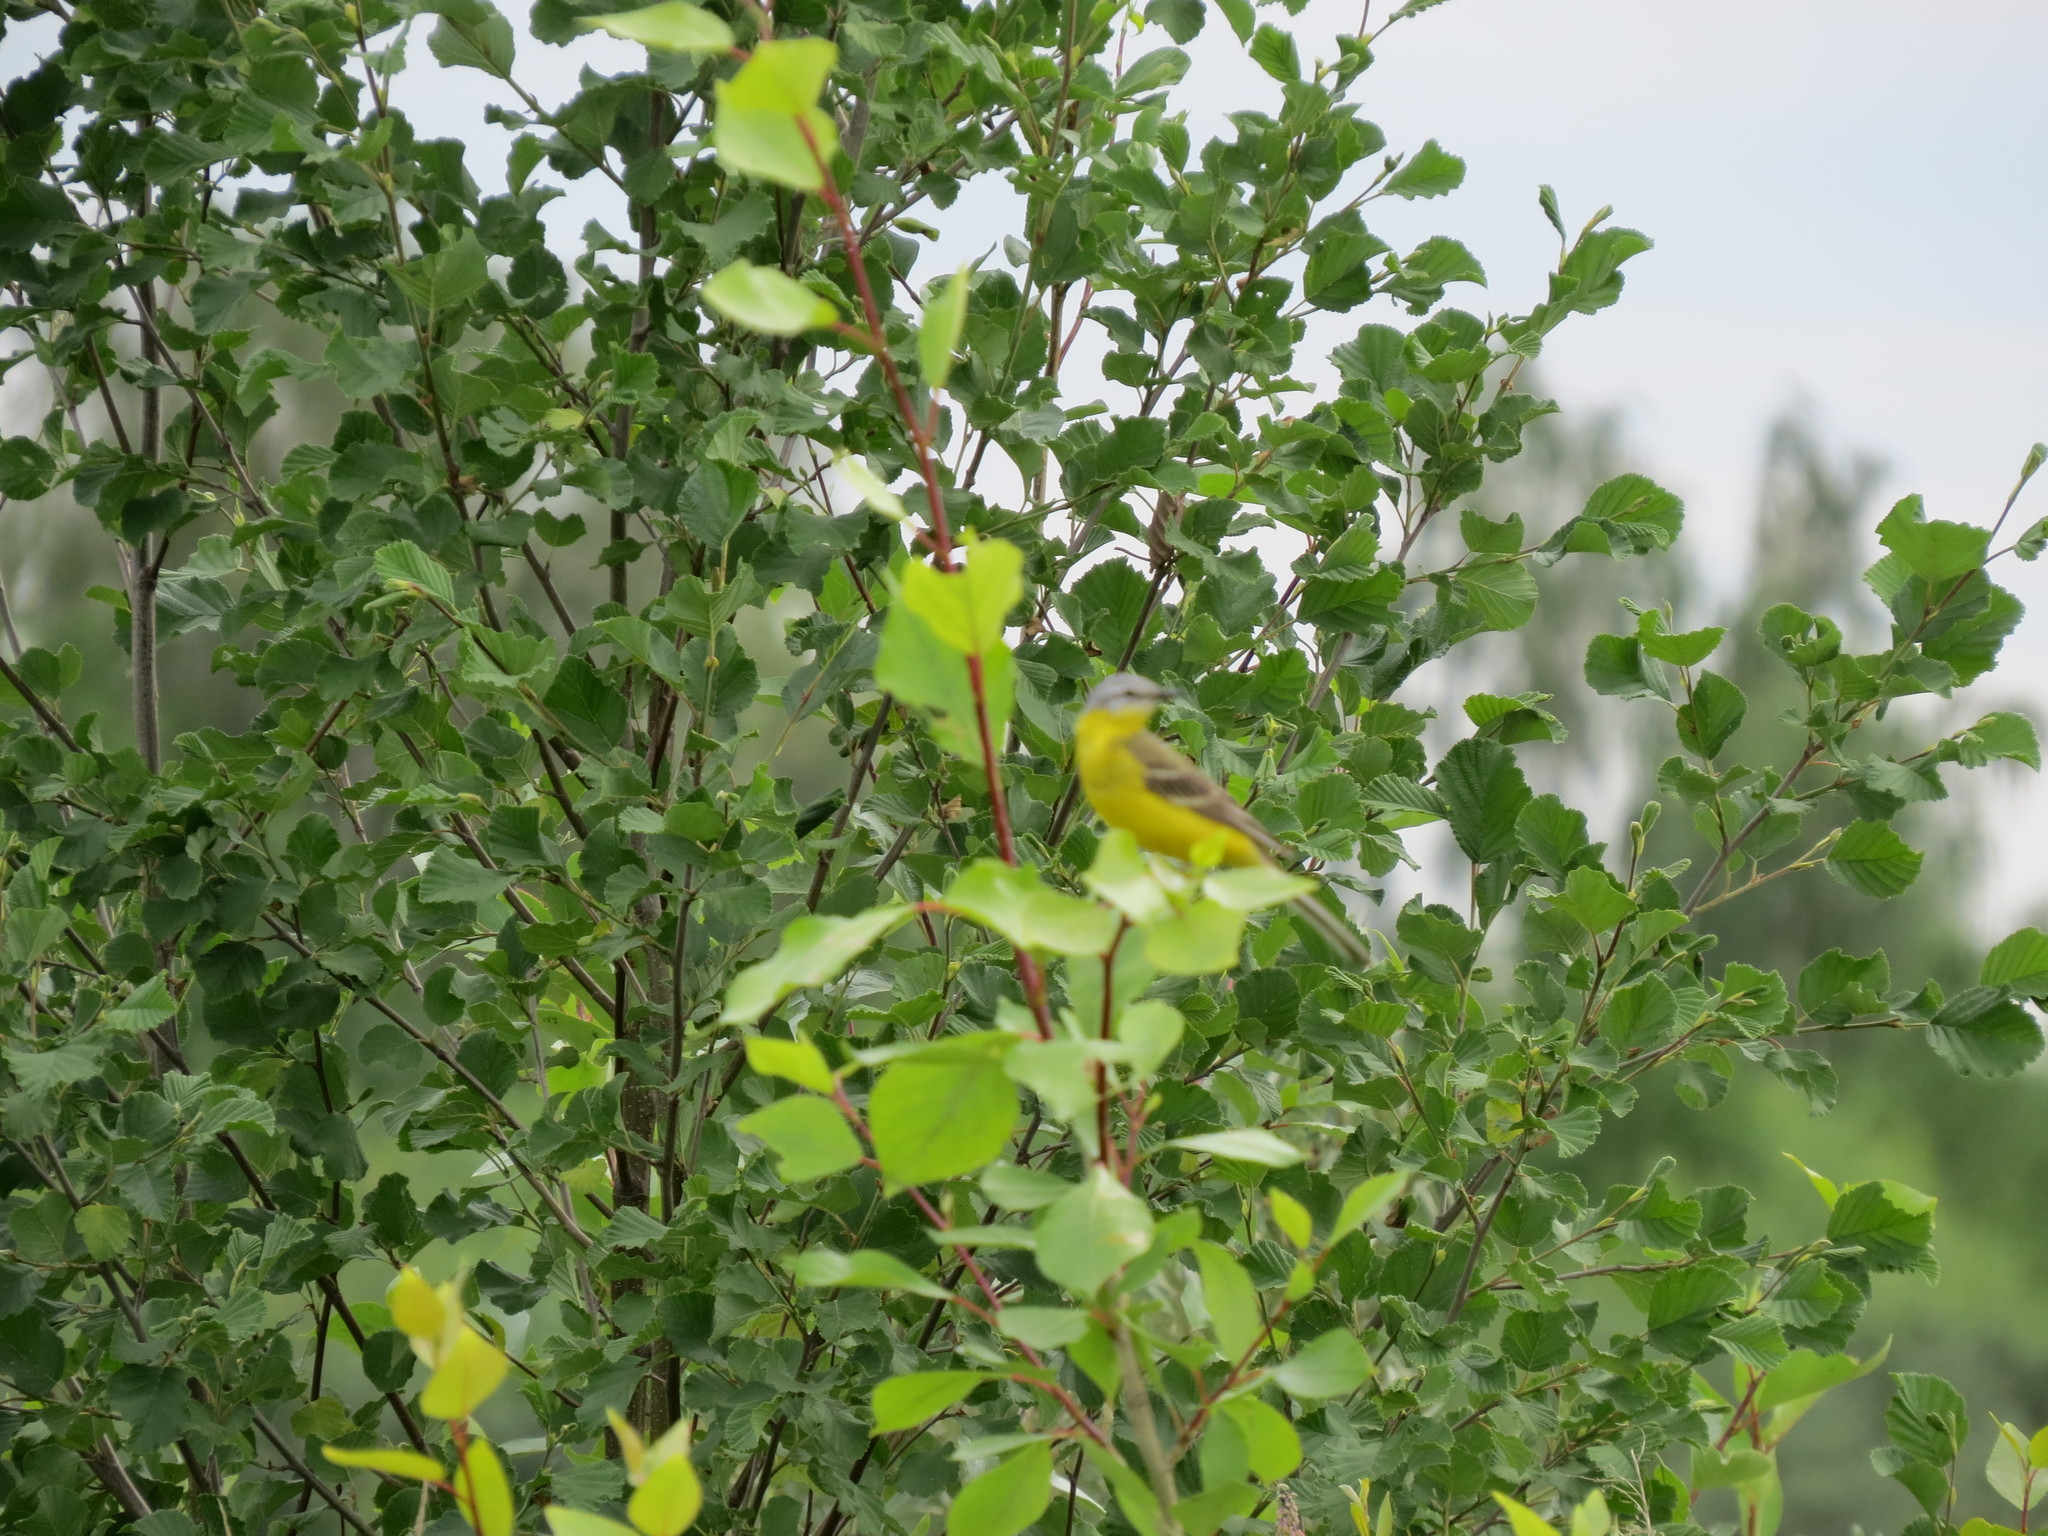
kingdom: Animalia
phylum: Chordata
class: Aves
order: Passeriformes
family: Motacillidae
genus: Motacilla
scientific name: Motacilla flava
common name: Western yellow wagtail
